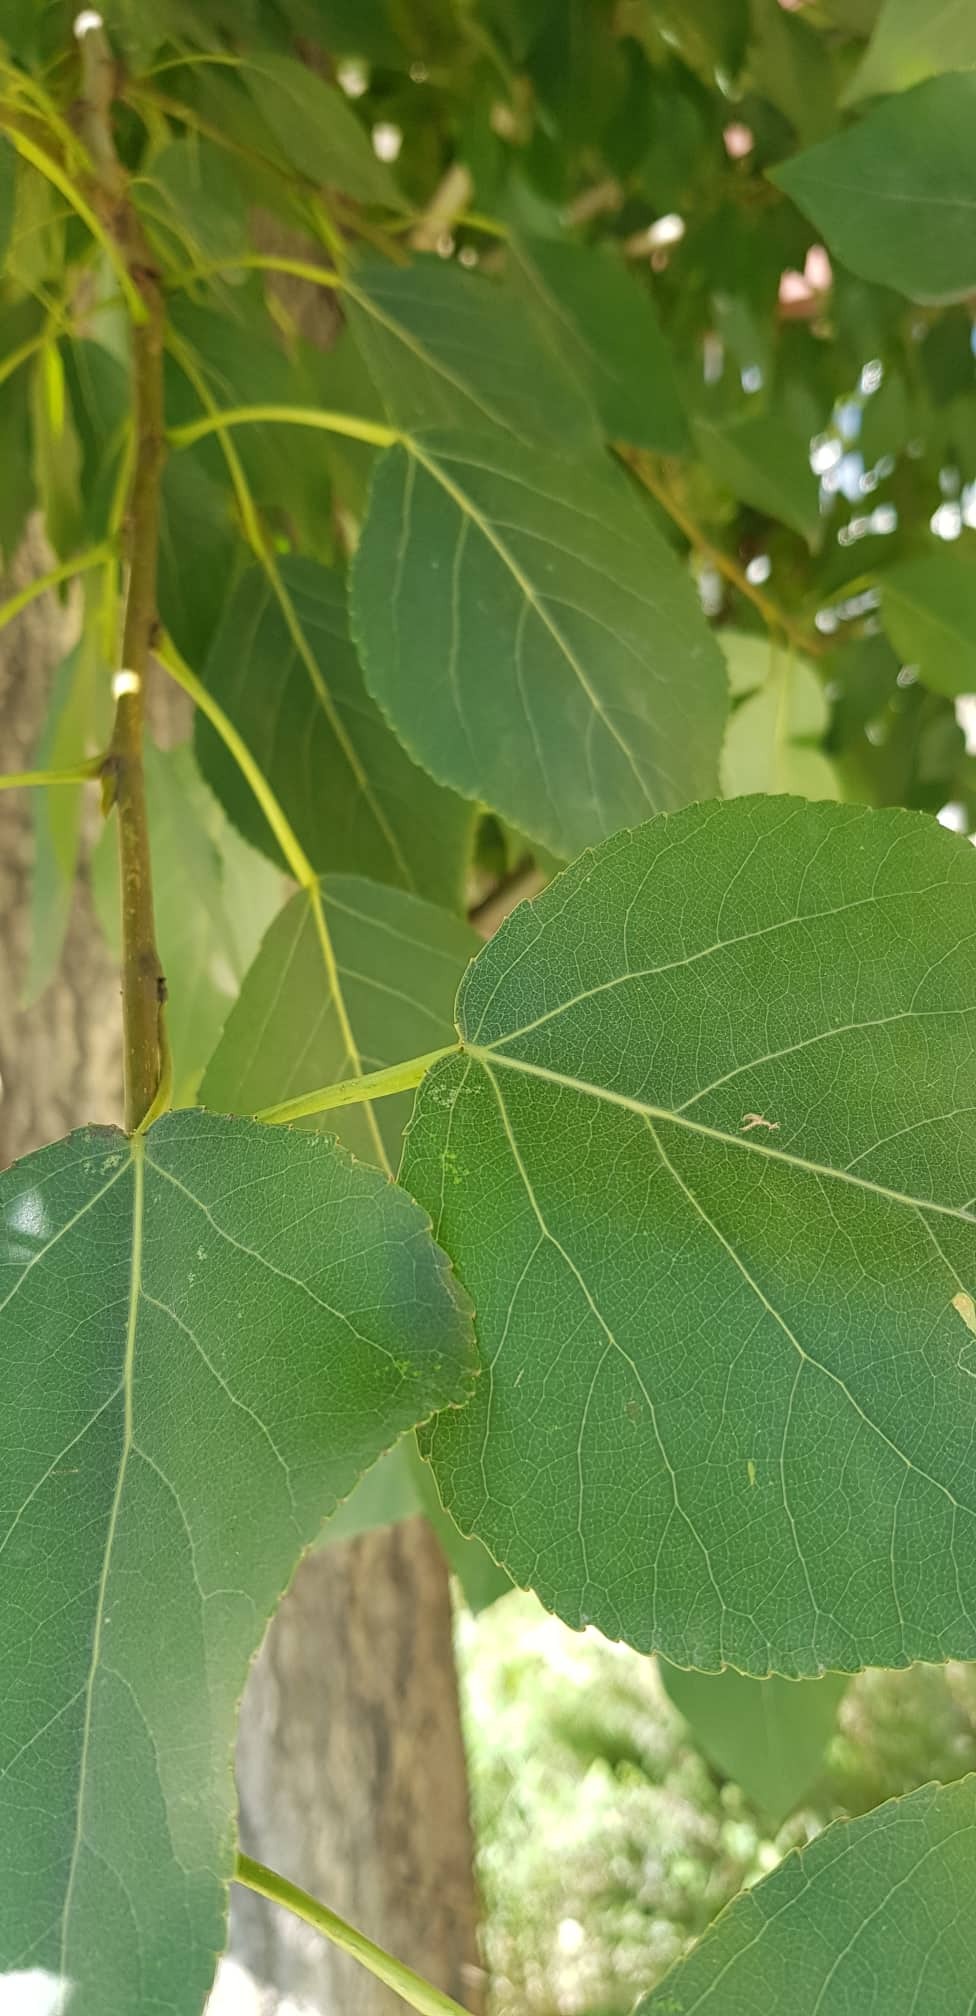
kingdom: Plantae
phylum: Tracheophyta
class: Magnoliopsida
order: Malpighiales
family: Salicaceae
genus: Populus
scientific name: Populus laurifolia
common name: Laurel-leaf poplar
